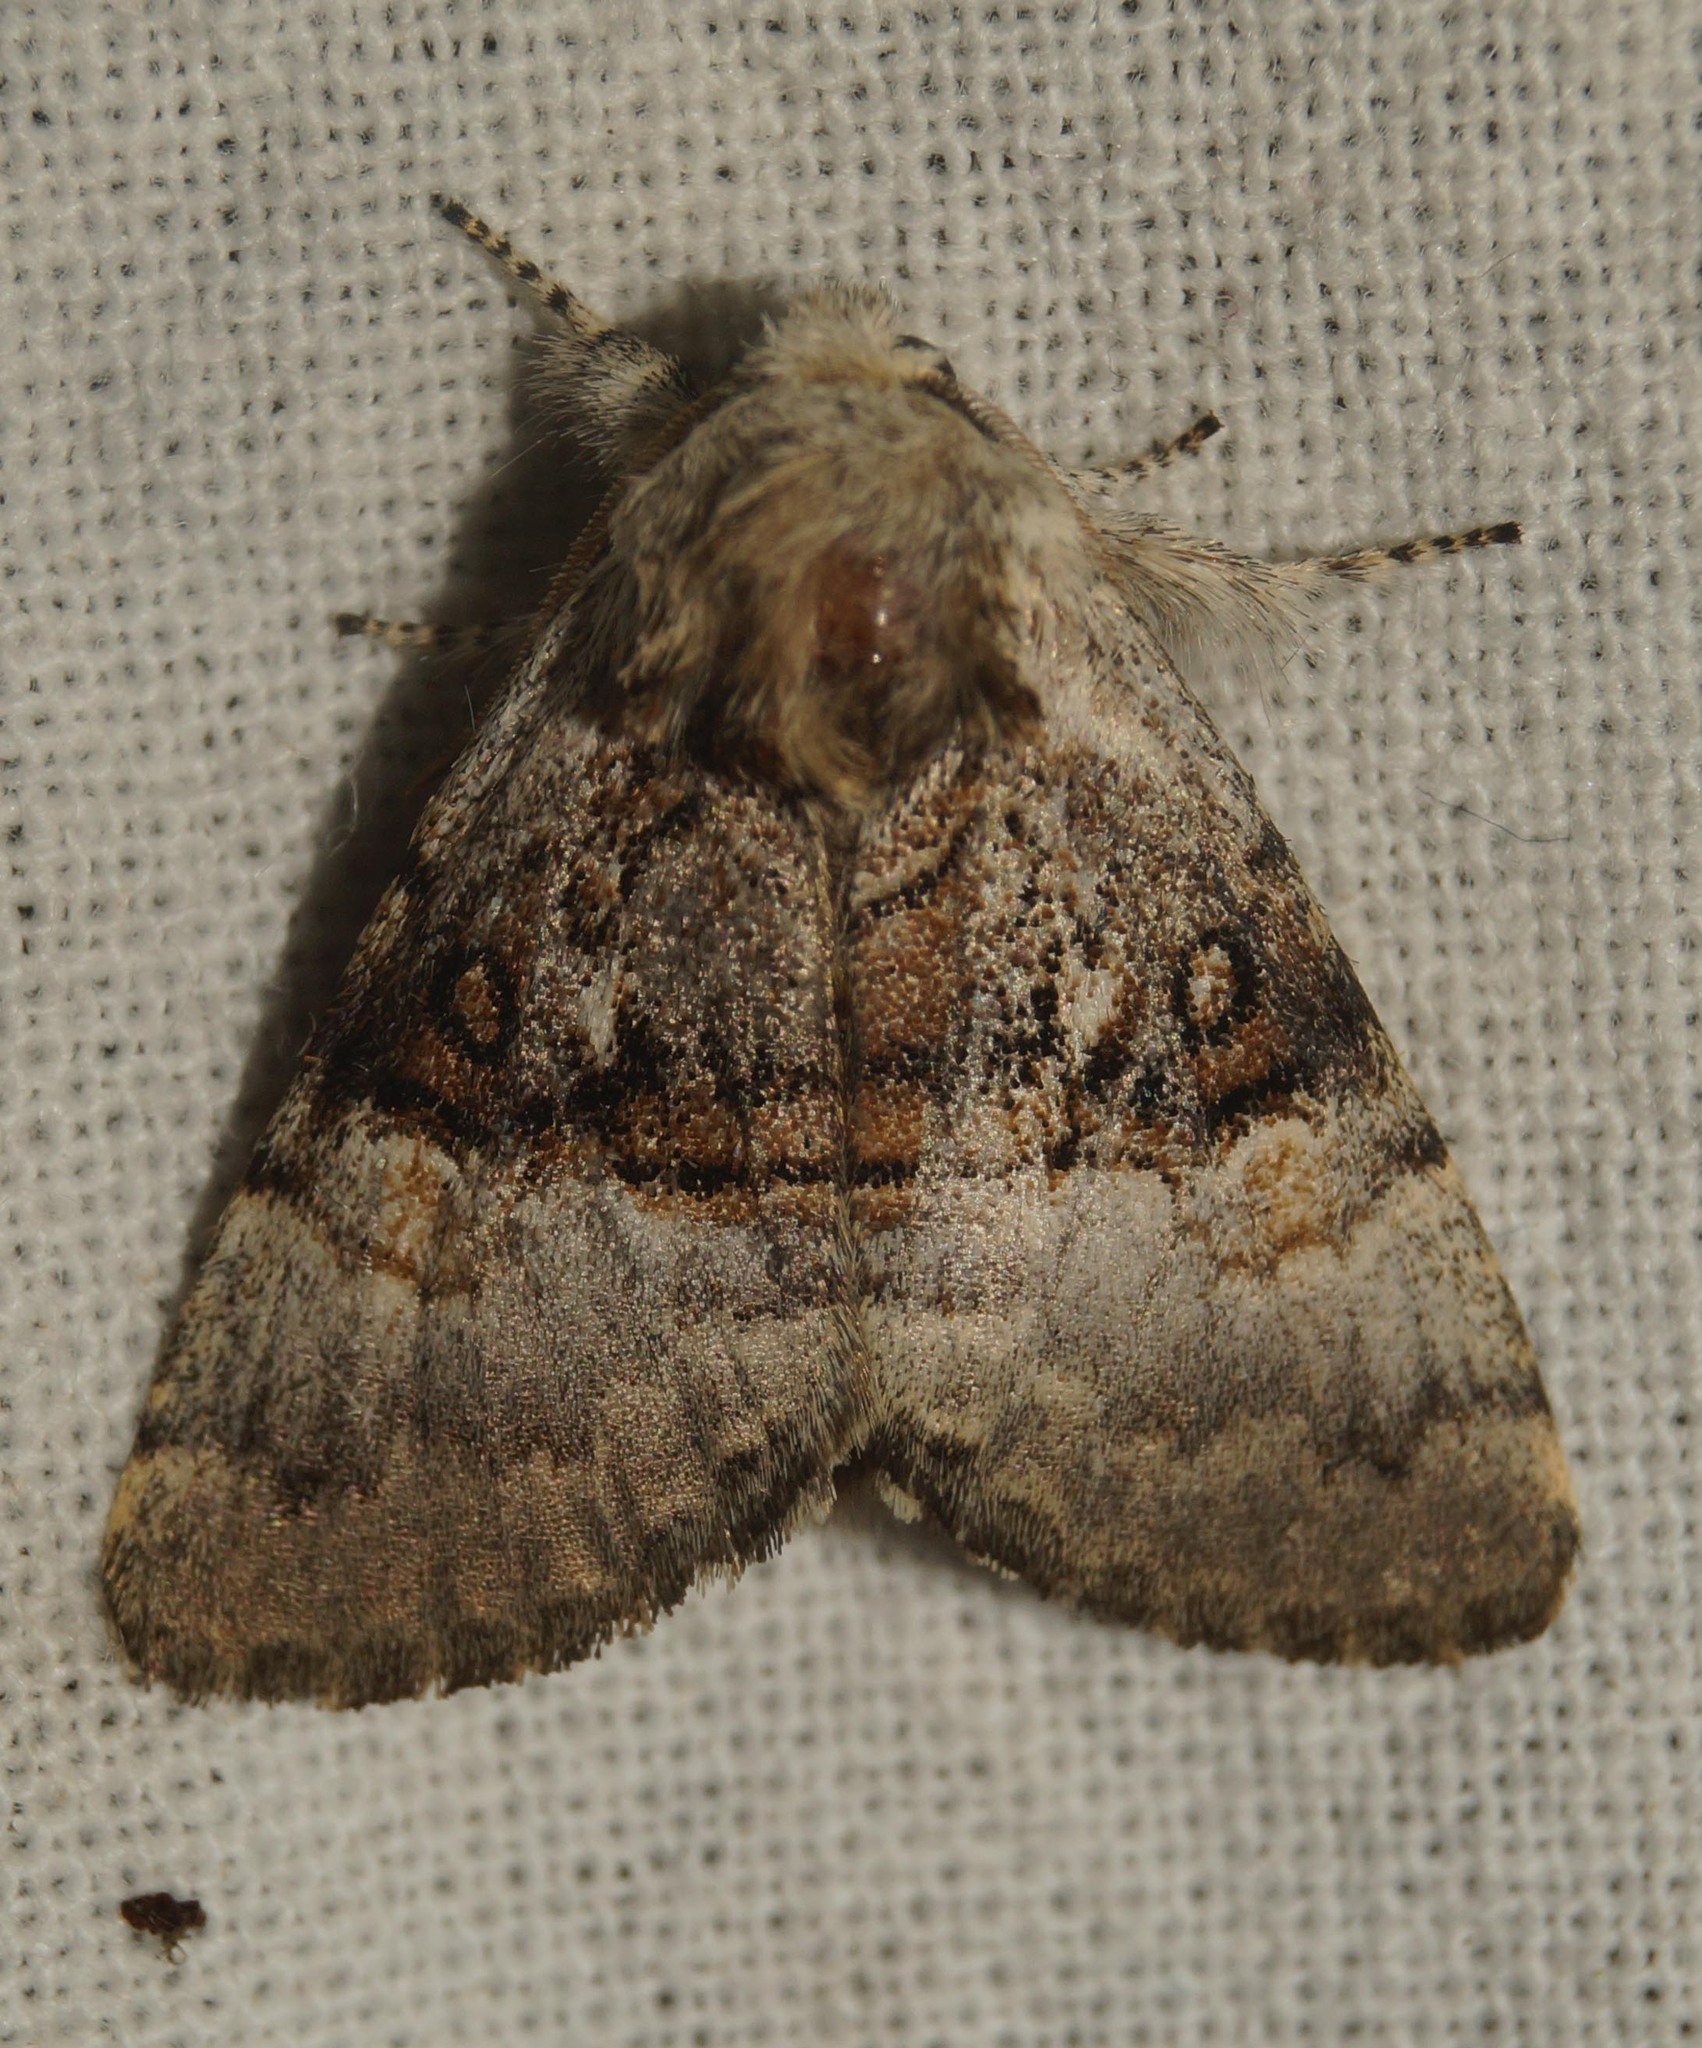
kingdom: Animalia
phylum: Arthropoda
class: Insecta
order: Lepidoptera
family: Noctuidae
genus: Colocasia
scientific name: Colocasia coryli
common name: Nut-tree tussock
